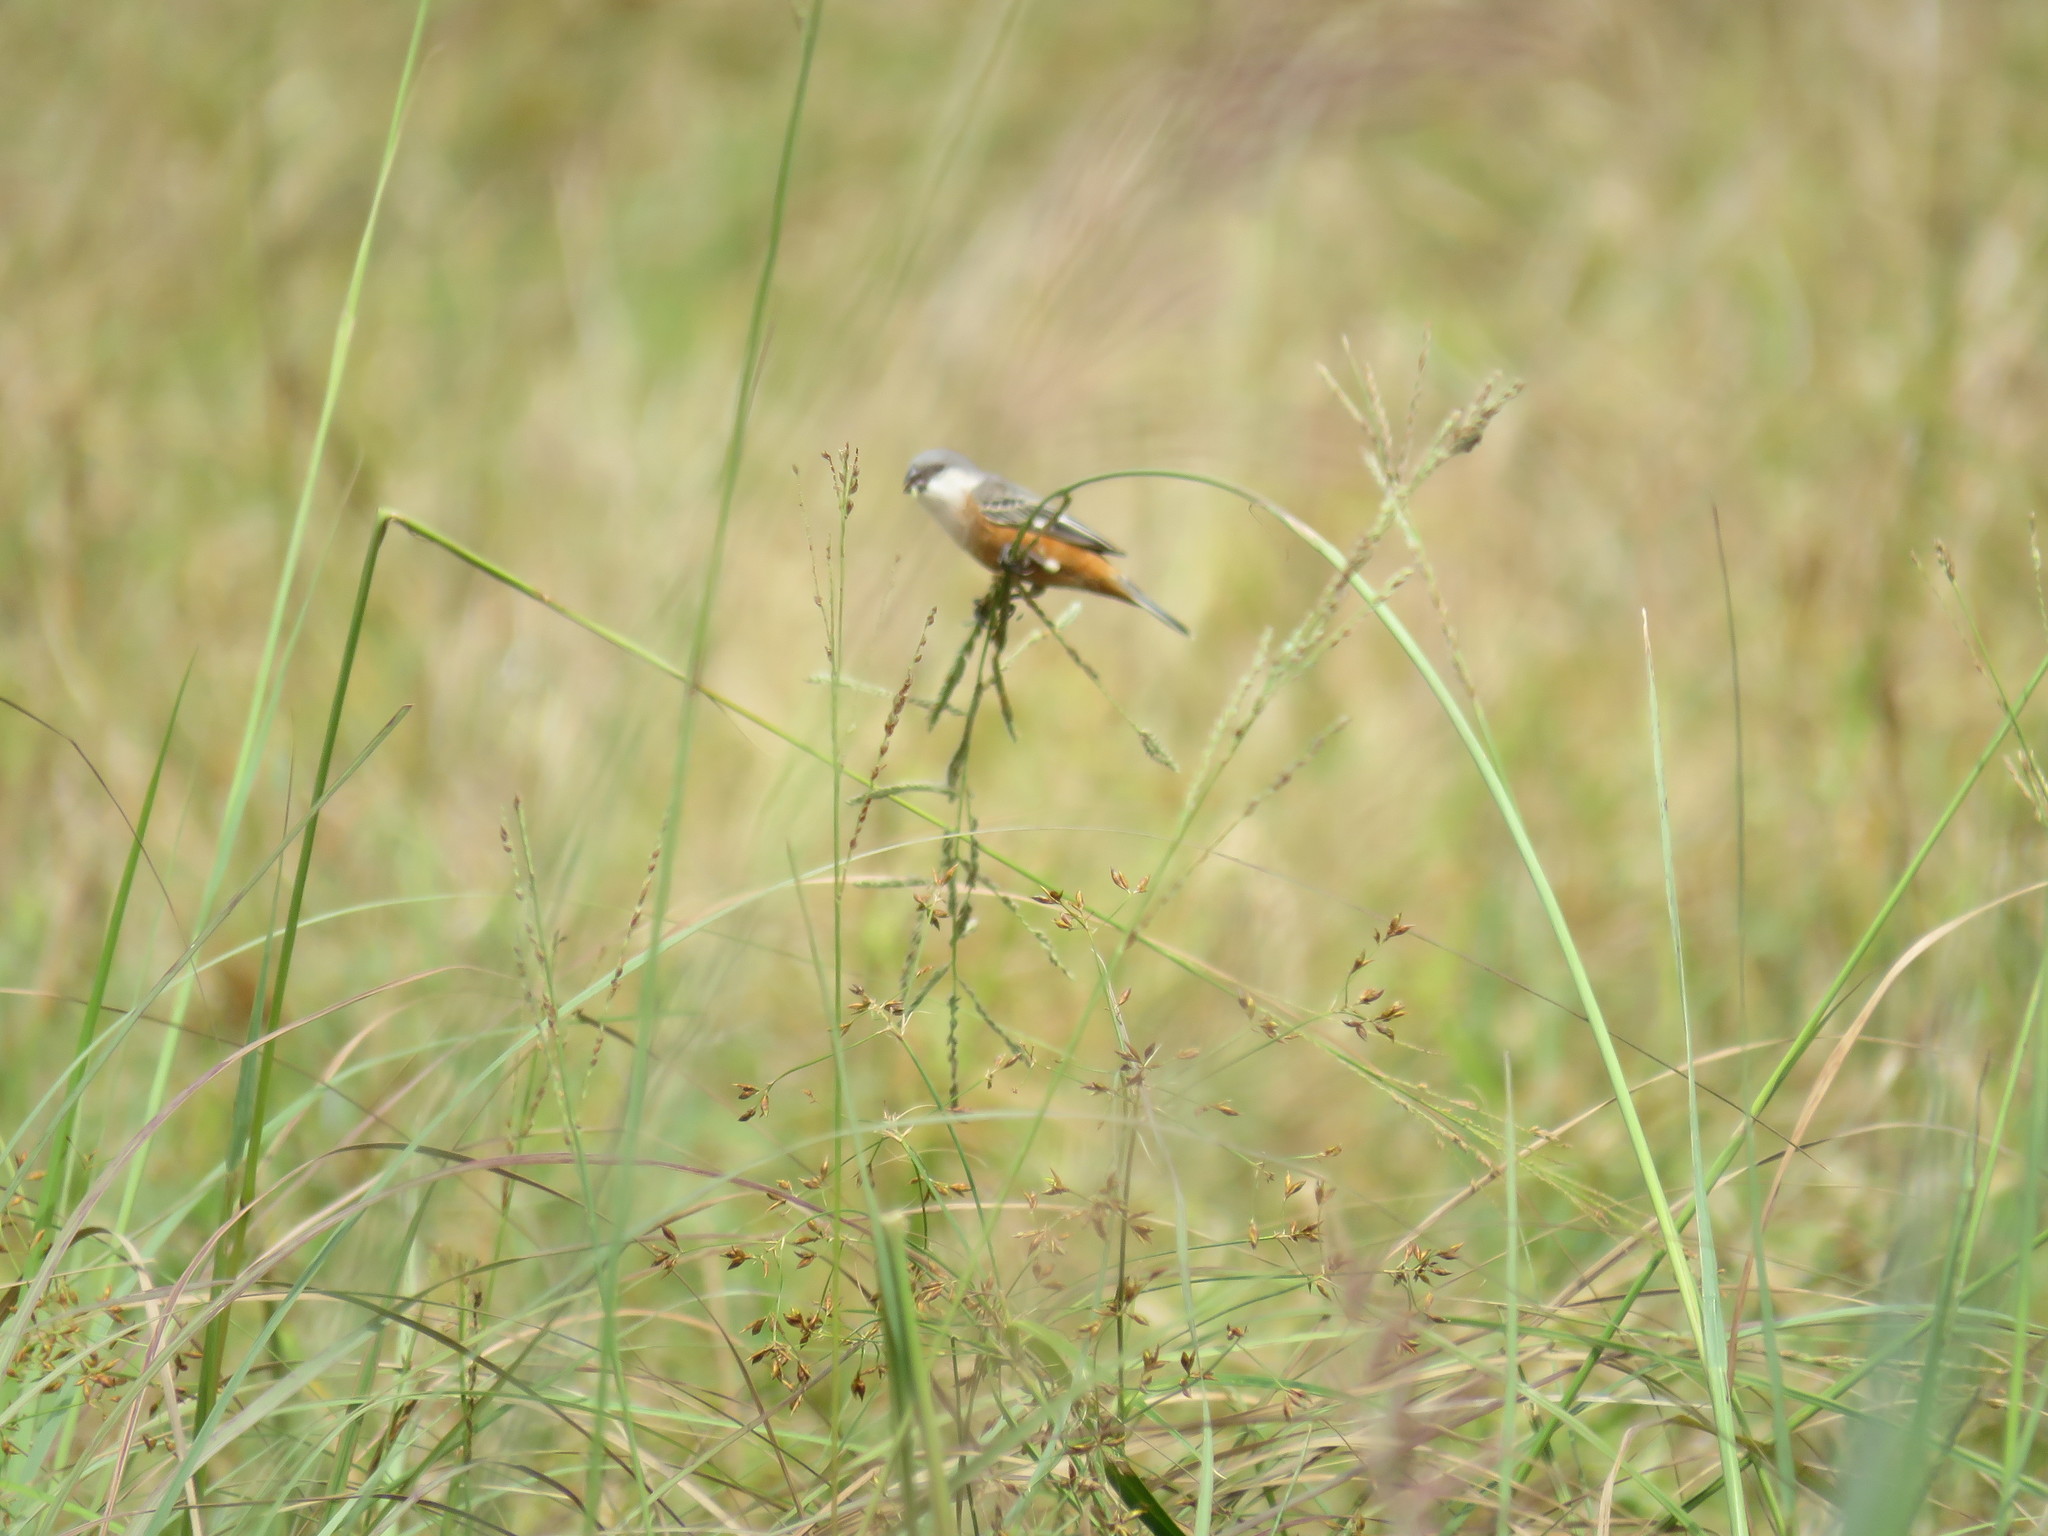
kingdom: Animalia
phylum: Chordata
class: Aves
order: Passeriformes
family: Thraupidae
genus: Sporophila
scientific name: Sporophila palustris
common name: Marsh seedeater
